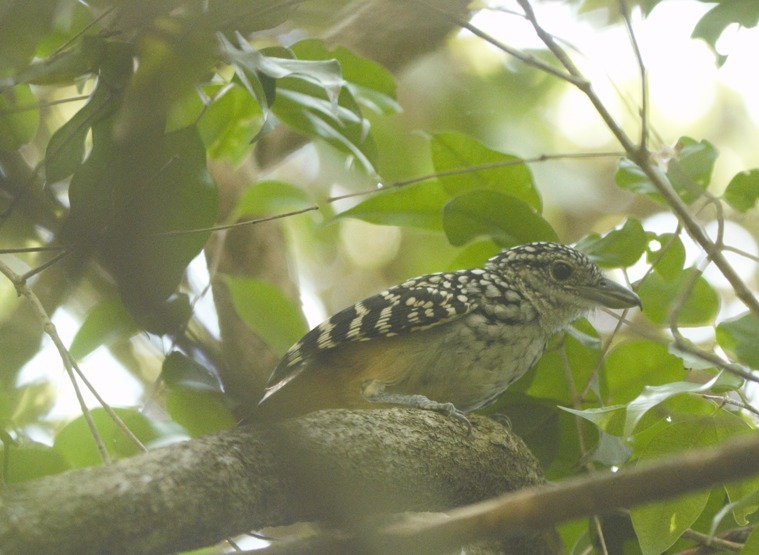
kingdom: Animalia
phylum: Chordata
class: Aves
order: Passeriformes
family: Thamnophilidae
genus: Hypoedaleus
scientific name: Hypoedaleus guttatus
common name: Spot-backed antshrike
